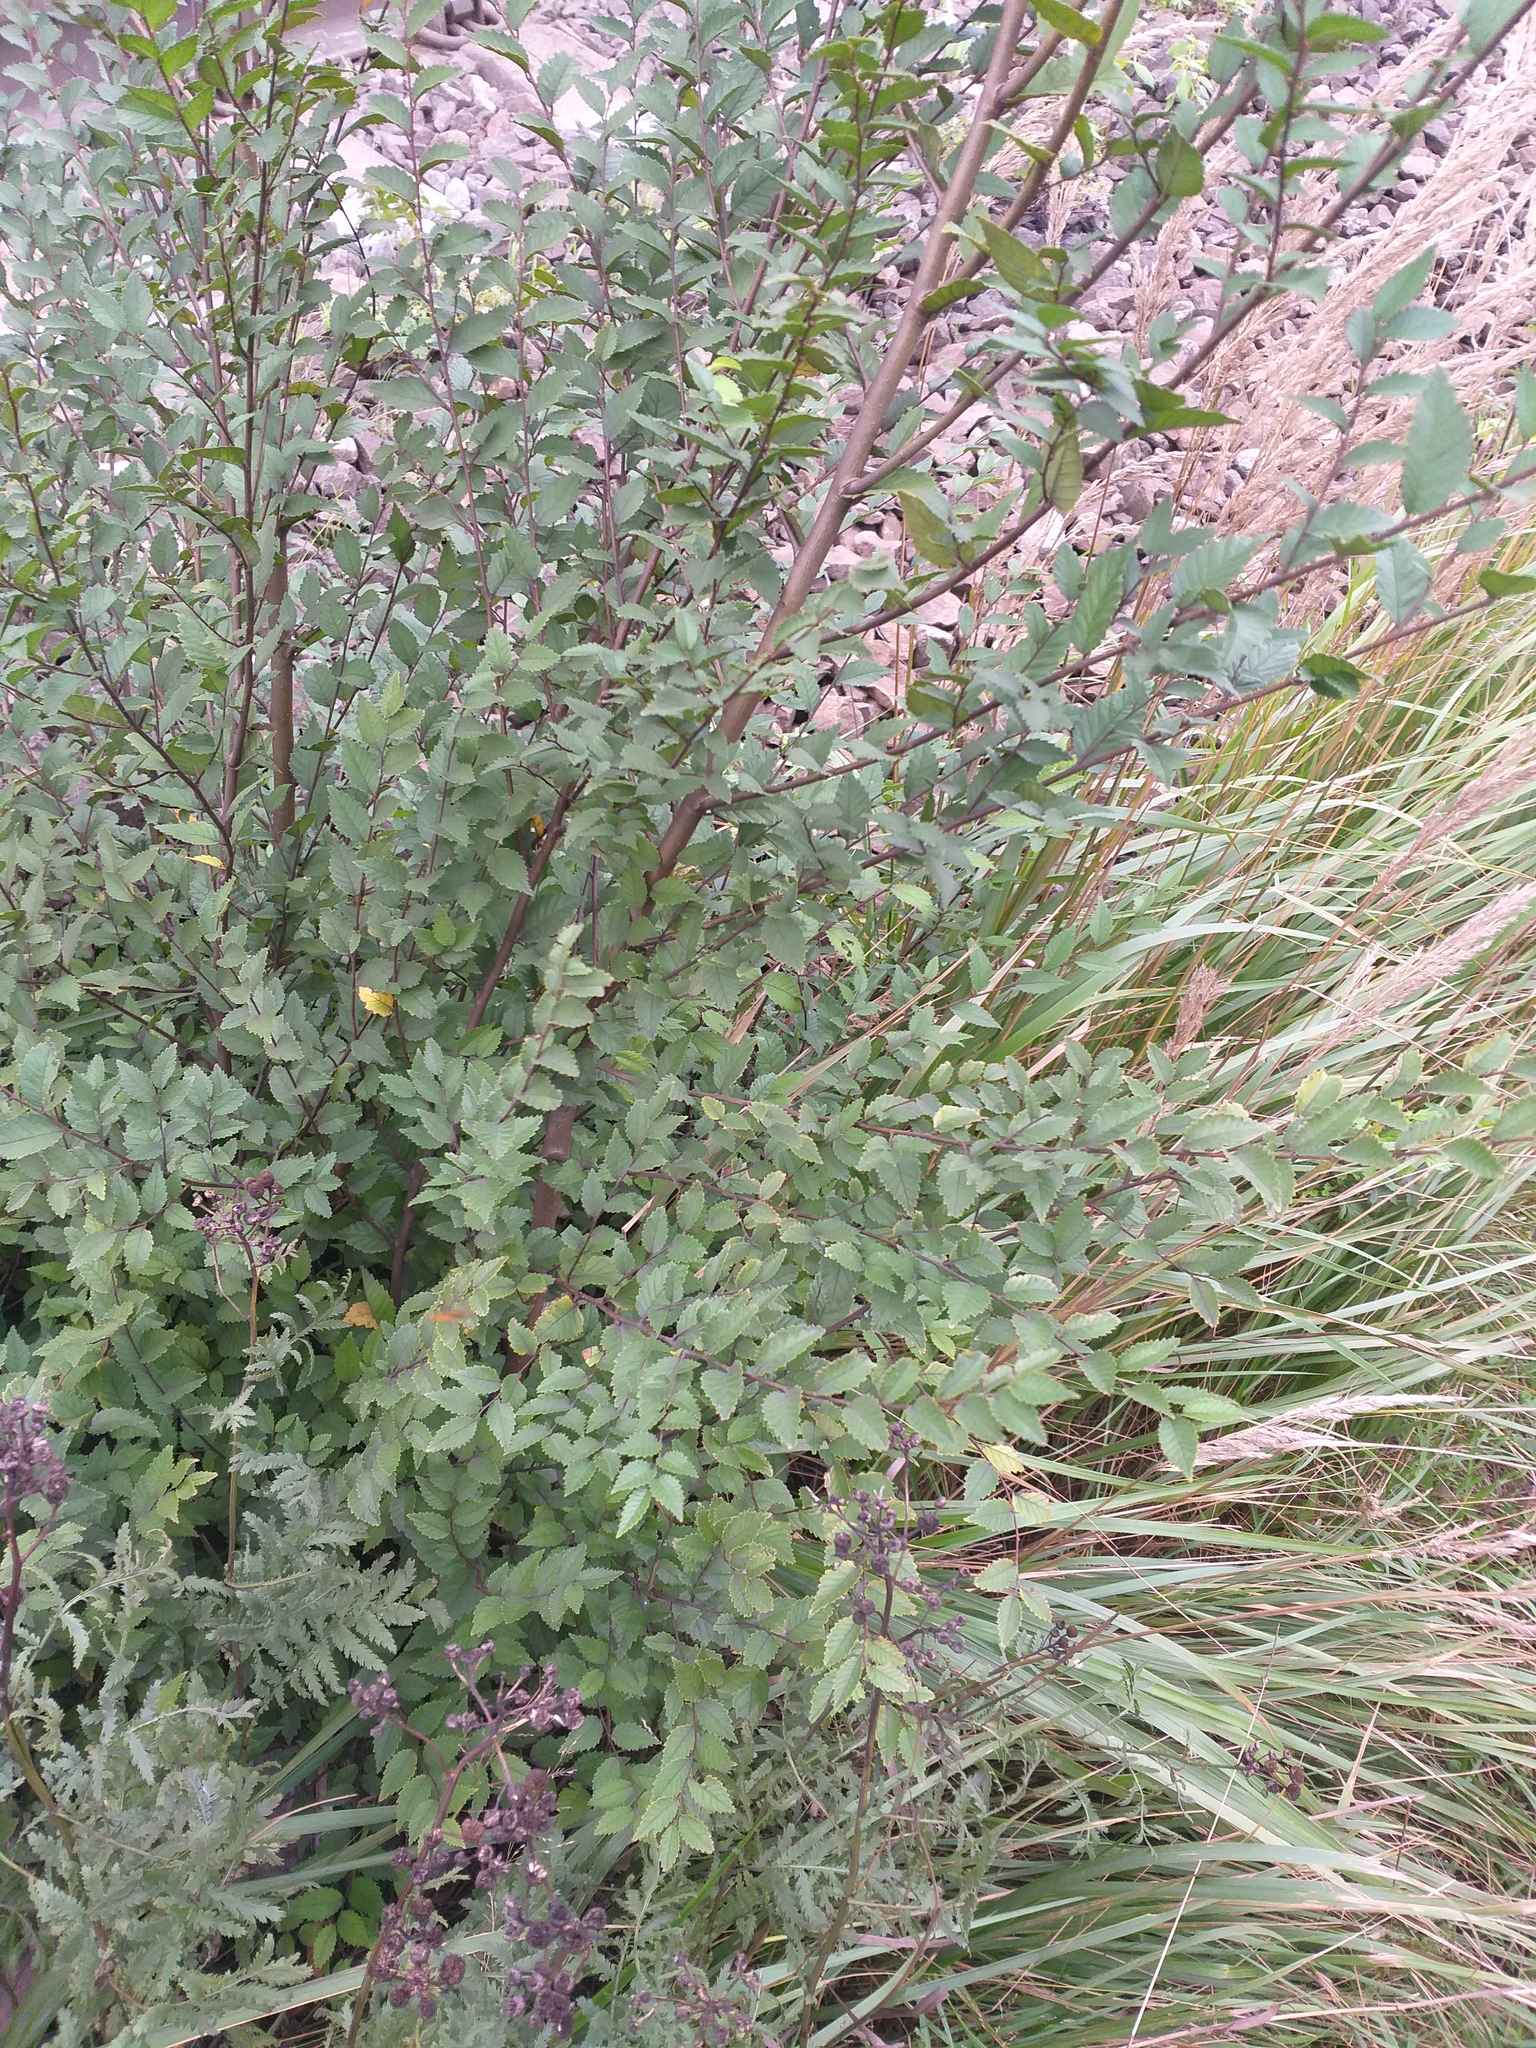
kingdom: Plantae
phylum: Tracheophyta
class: Magnoliopsida
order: Rosales
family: Ulmaceae
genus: Ulmus
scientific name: Ulmus pumila
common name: Siberian elm
